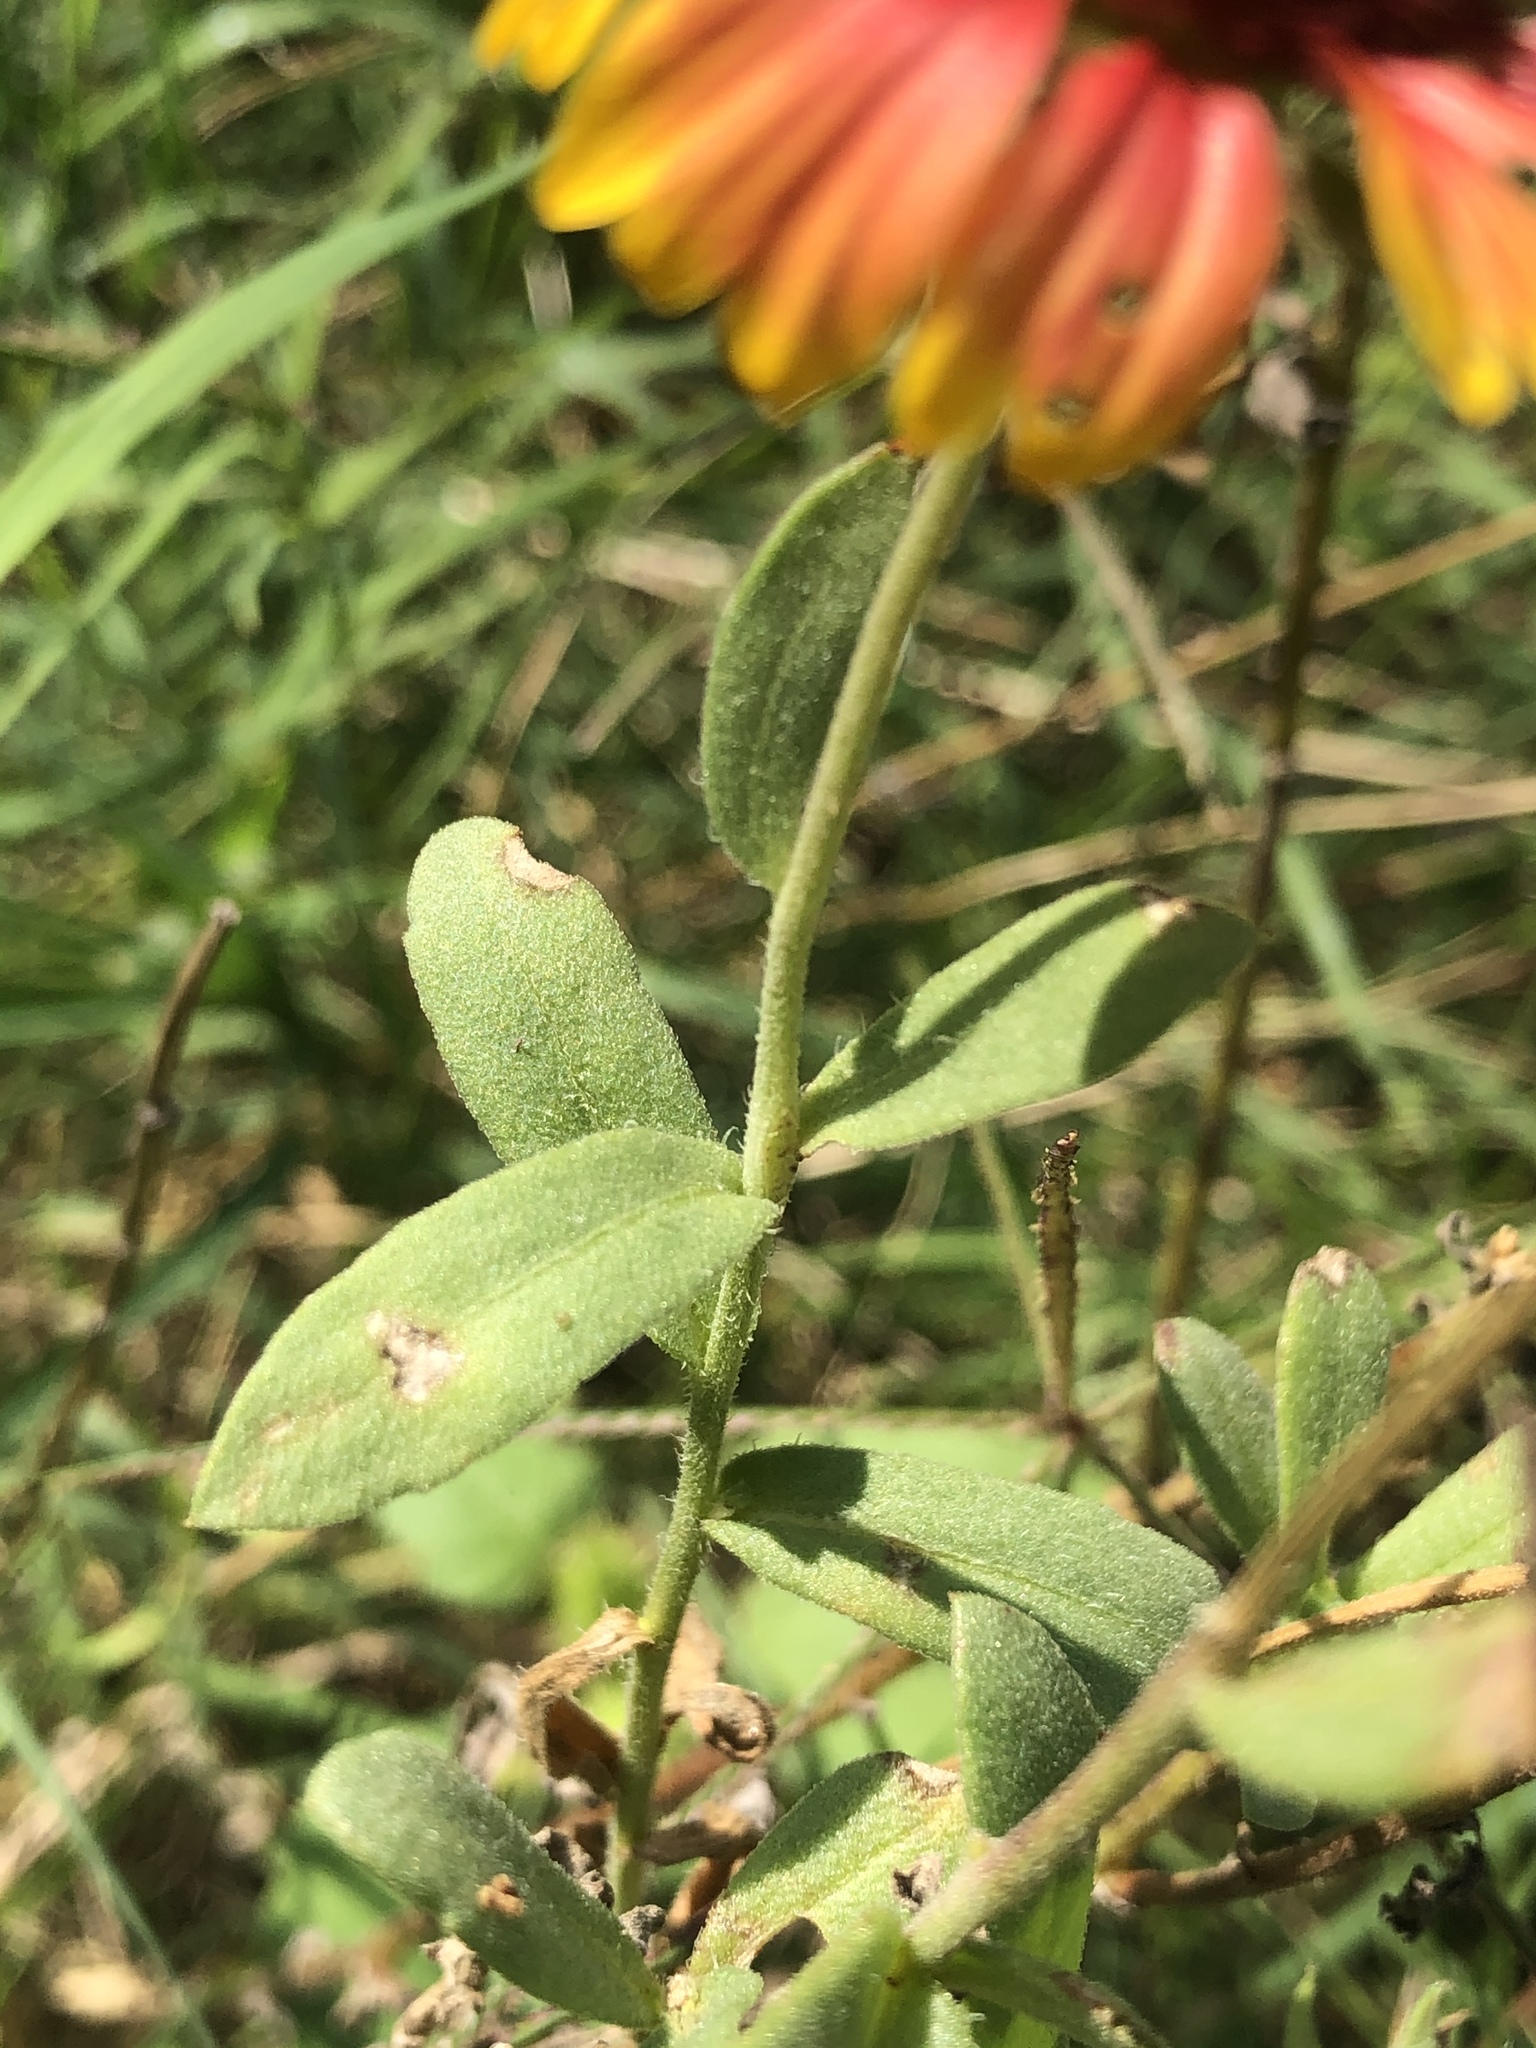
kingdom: Plantae
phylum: Tracheophyta
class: Magnoliopsida
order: Asterales
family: Asteraceae
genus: Gaillardia
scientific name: Gaillardia pulchella
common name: Firewheel
